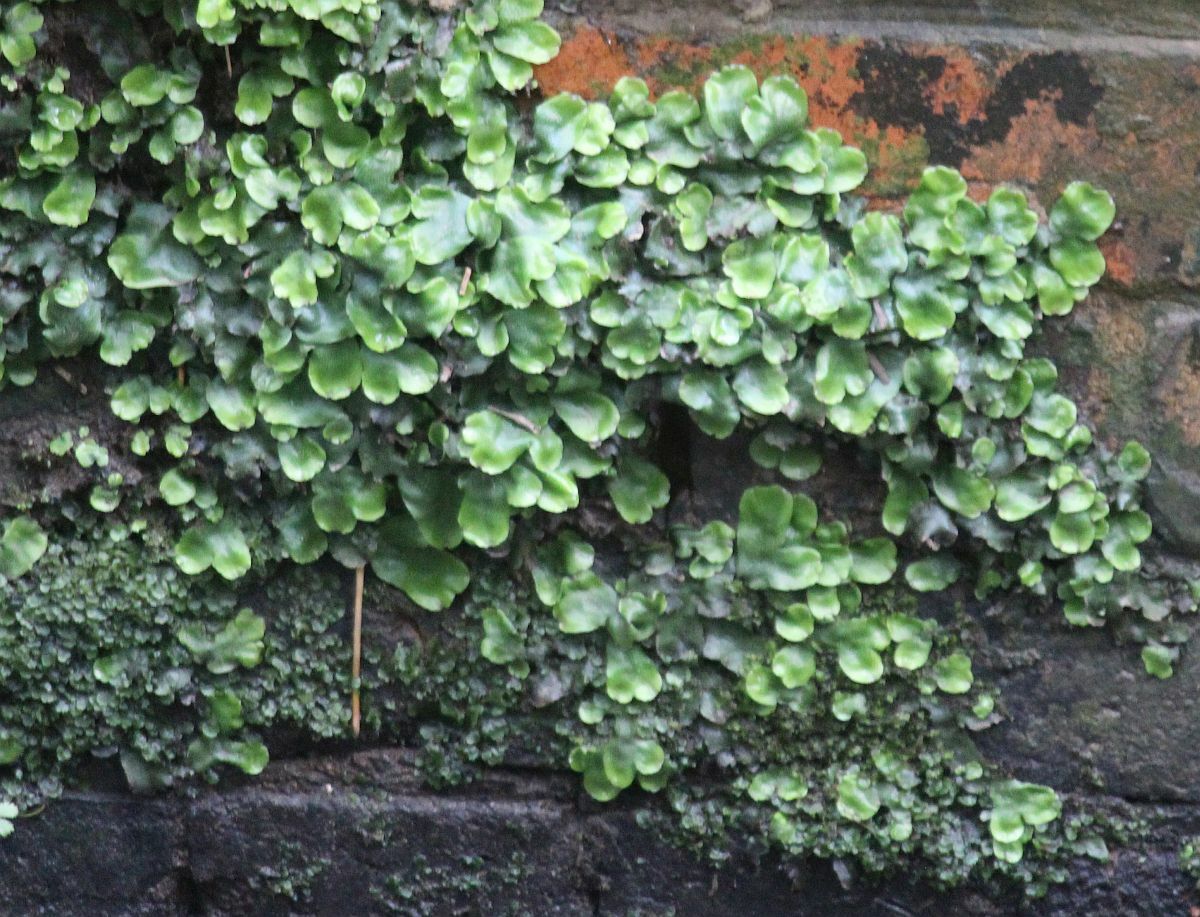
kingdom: Plantae
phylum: Marchantiophyta
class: Marchantiopsida
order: Marchantiales
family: Conocephalaceae
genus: Conocephalum
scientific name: Conocephalum conicum
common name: Great scented liverwort
